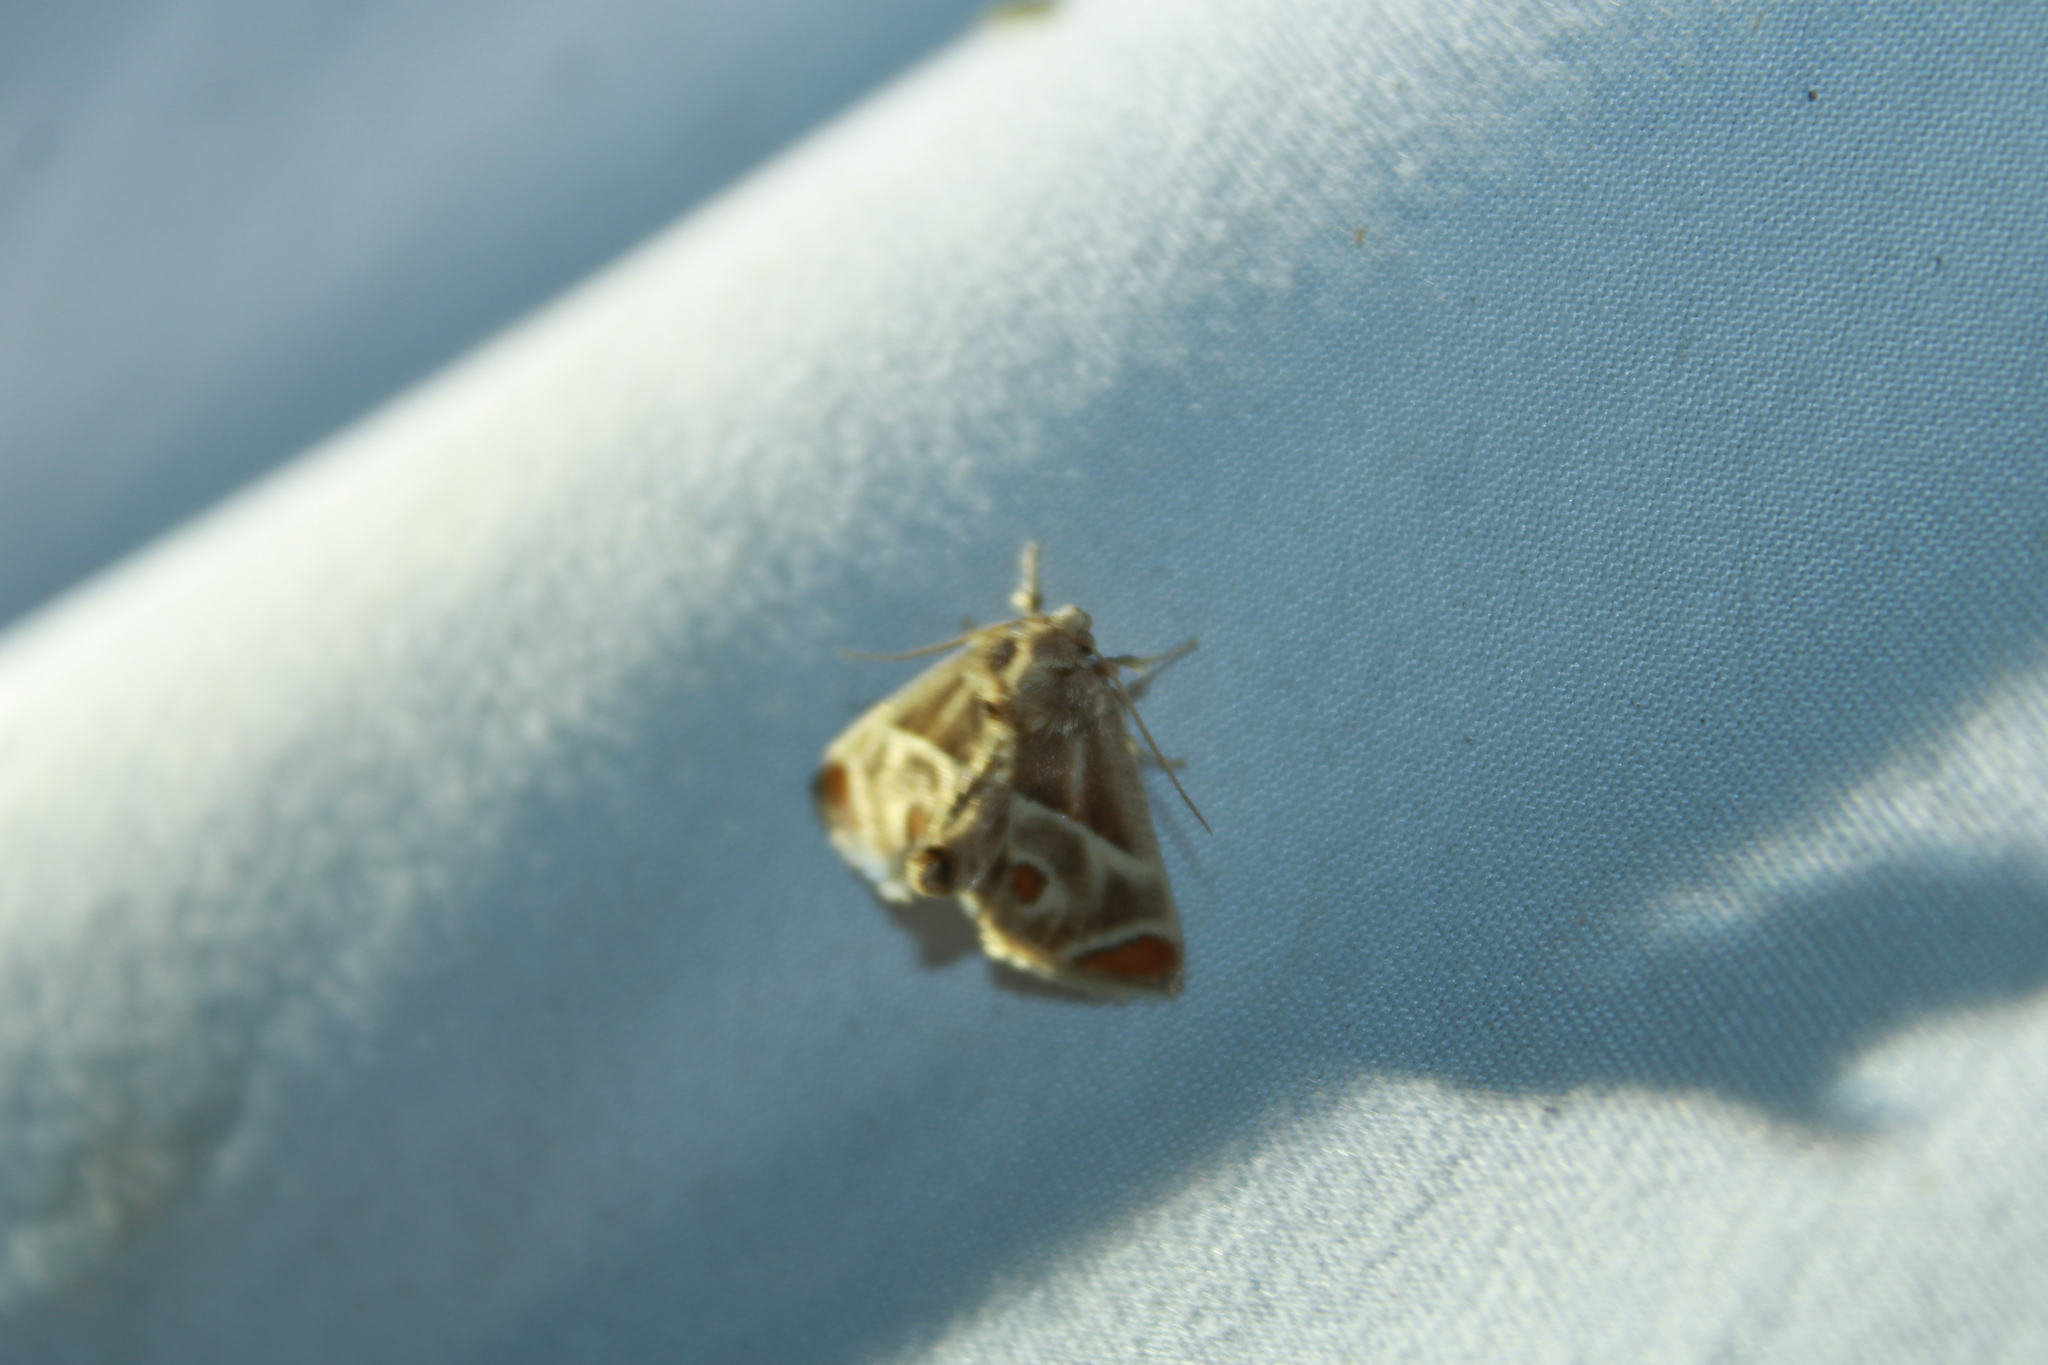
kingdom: Animalia
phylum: Arthropoda
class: Insecta
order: Lepidoptera
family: Limacodidae
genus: Apoda
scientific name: Apoda biguttata
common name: Shagreened slug moth
